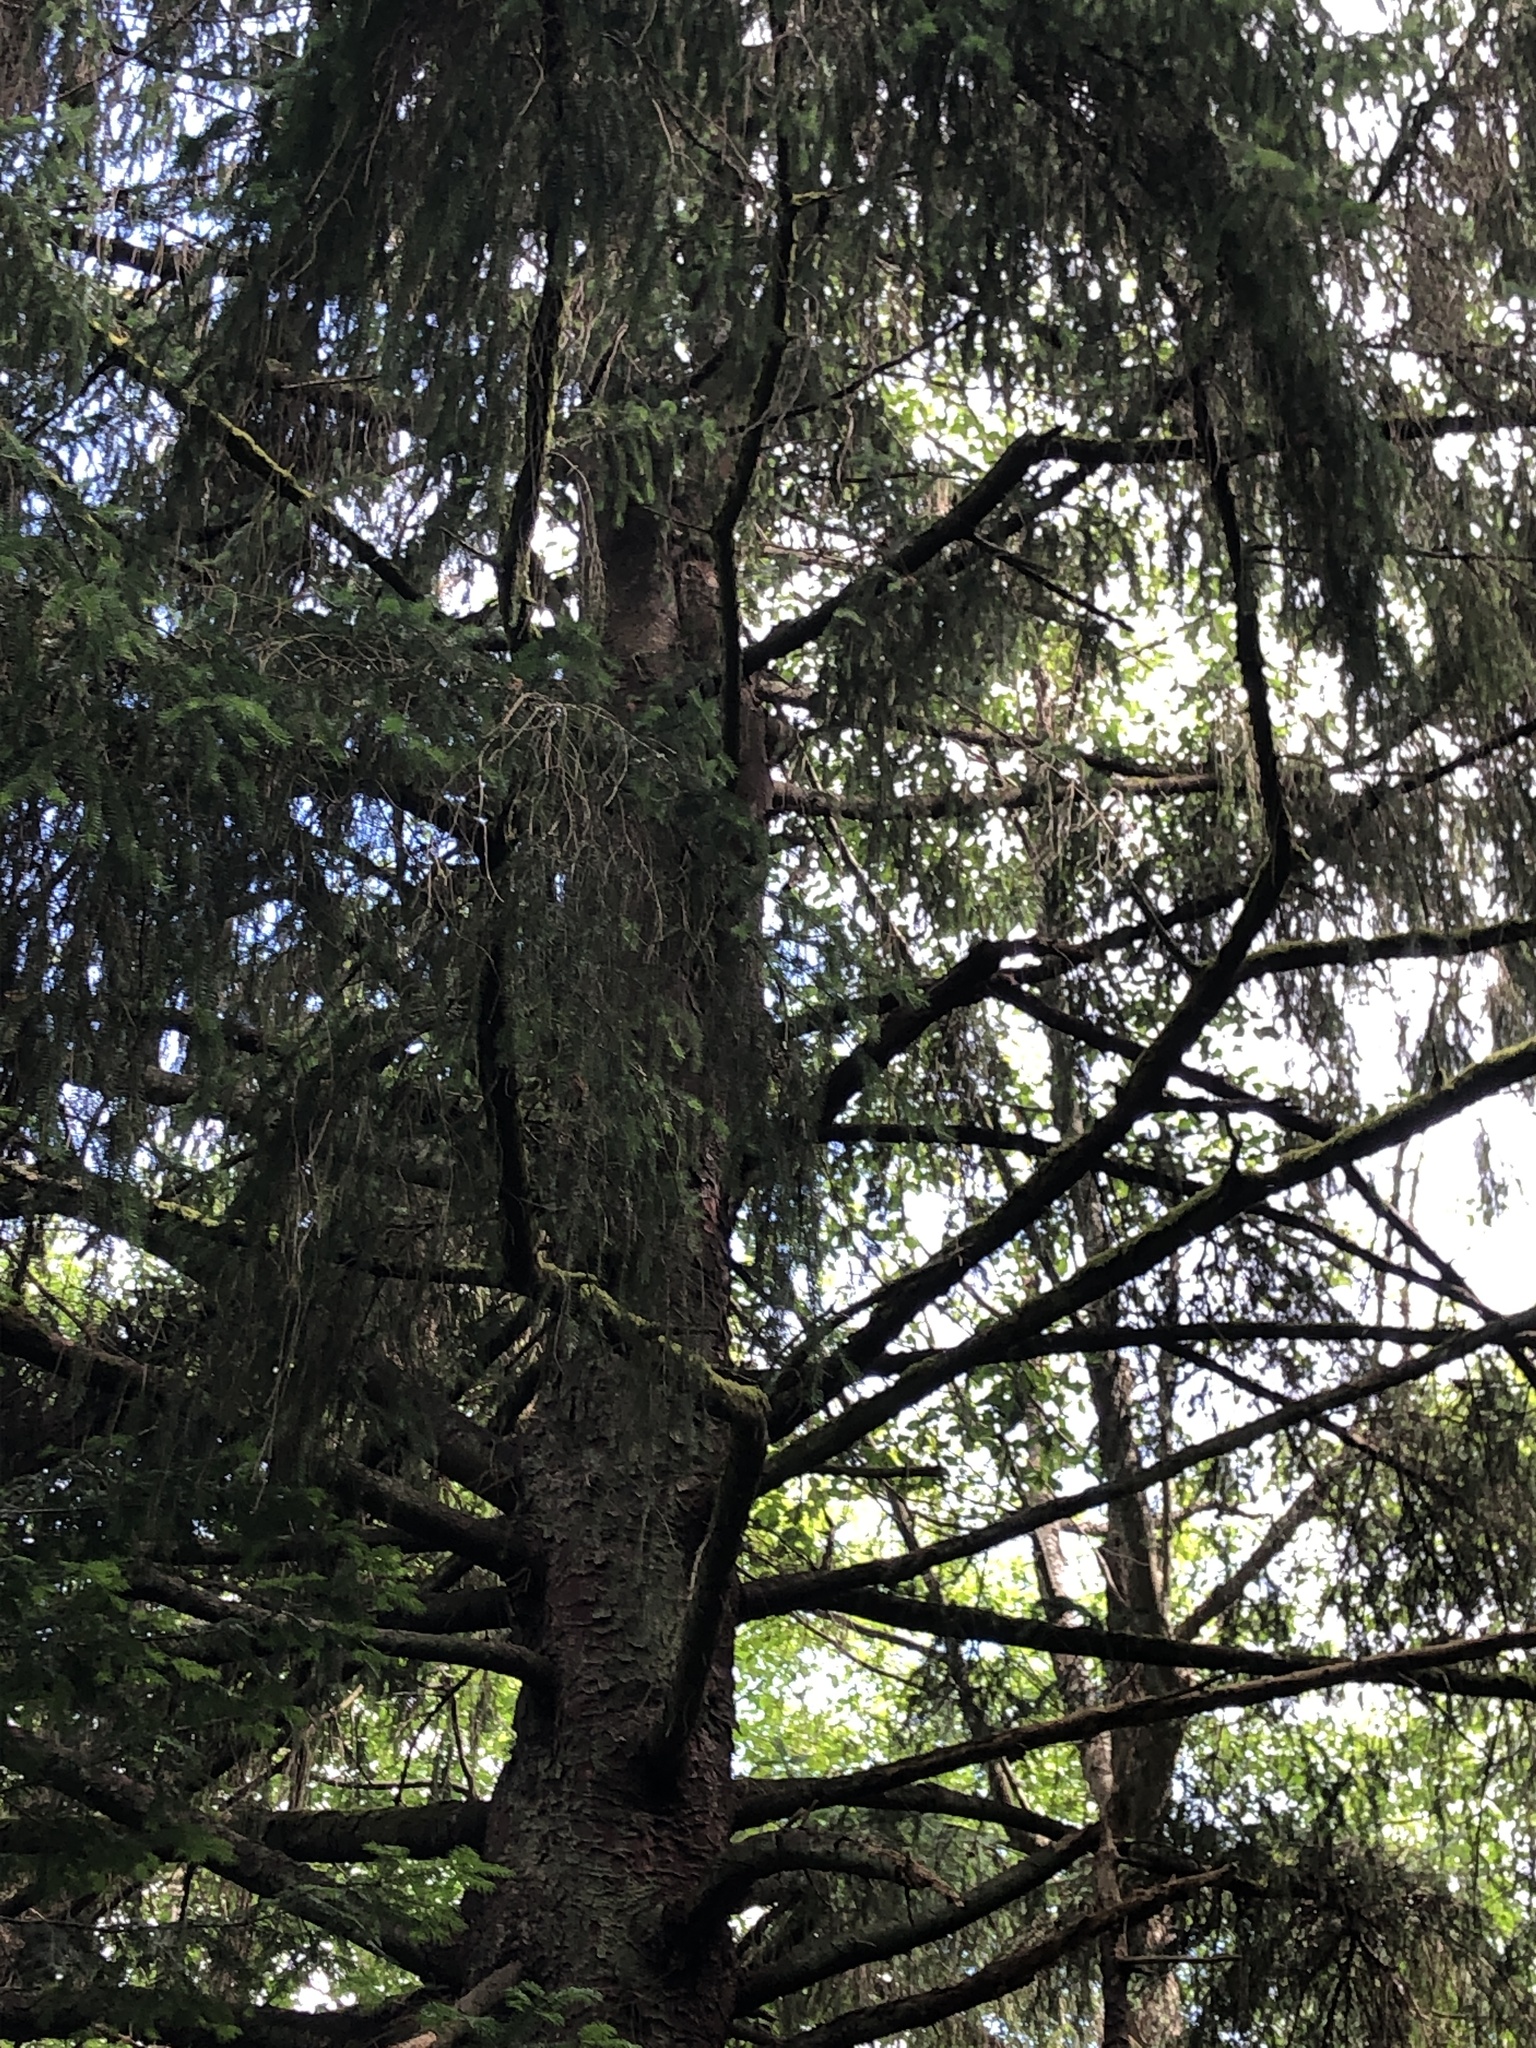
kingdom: Plantae
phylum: Tracheophyta
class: Pinopsida
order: Pinales
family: Pinaceae
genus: Picea
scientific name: Picea sitchensis
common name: Sitka spruce
